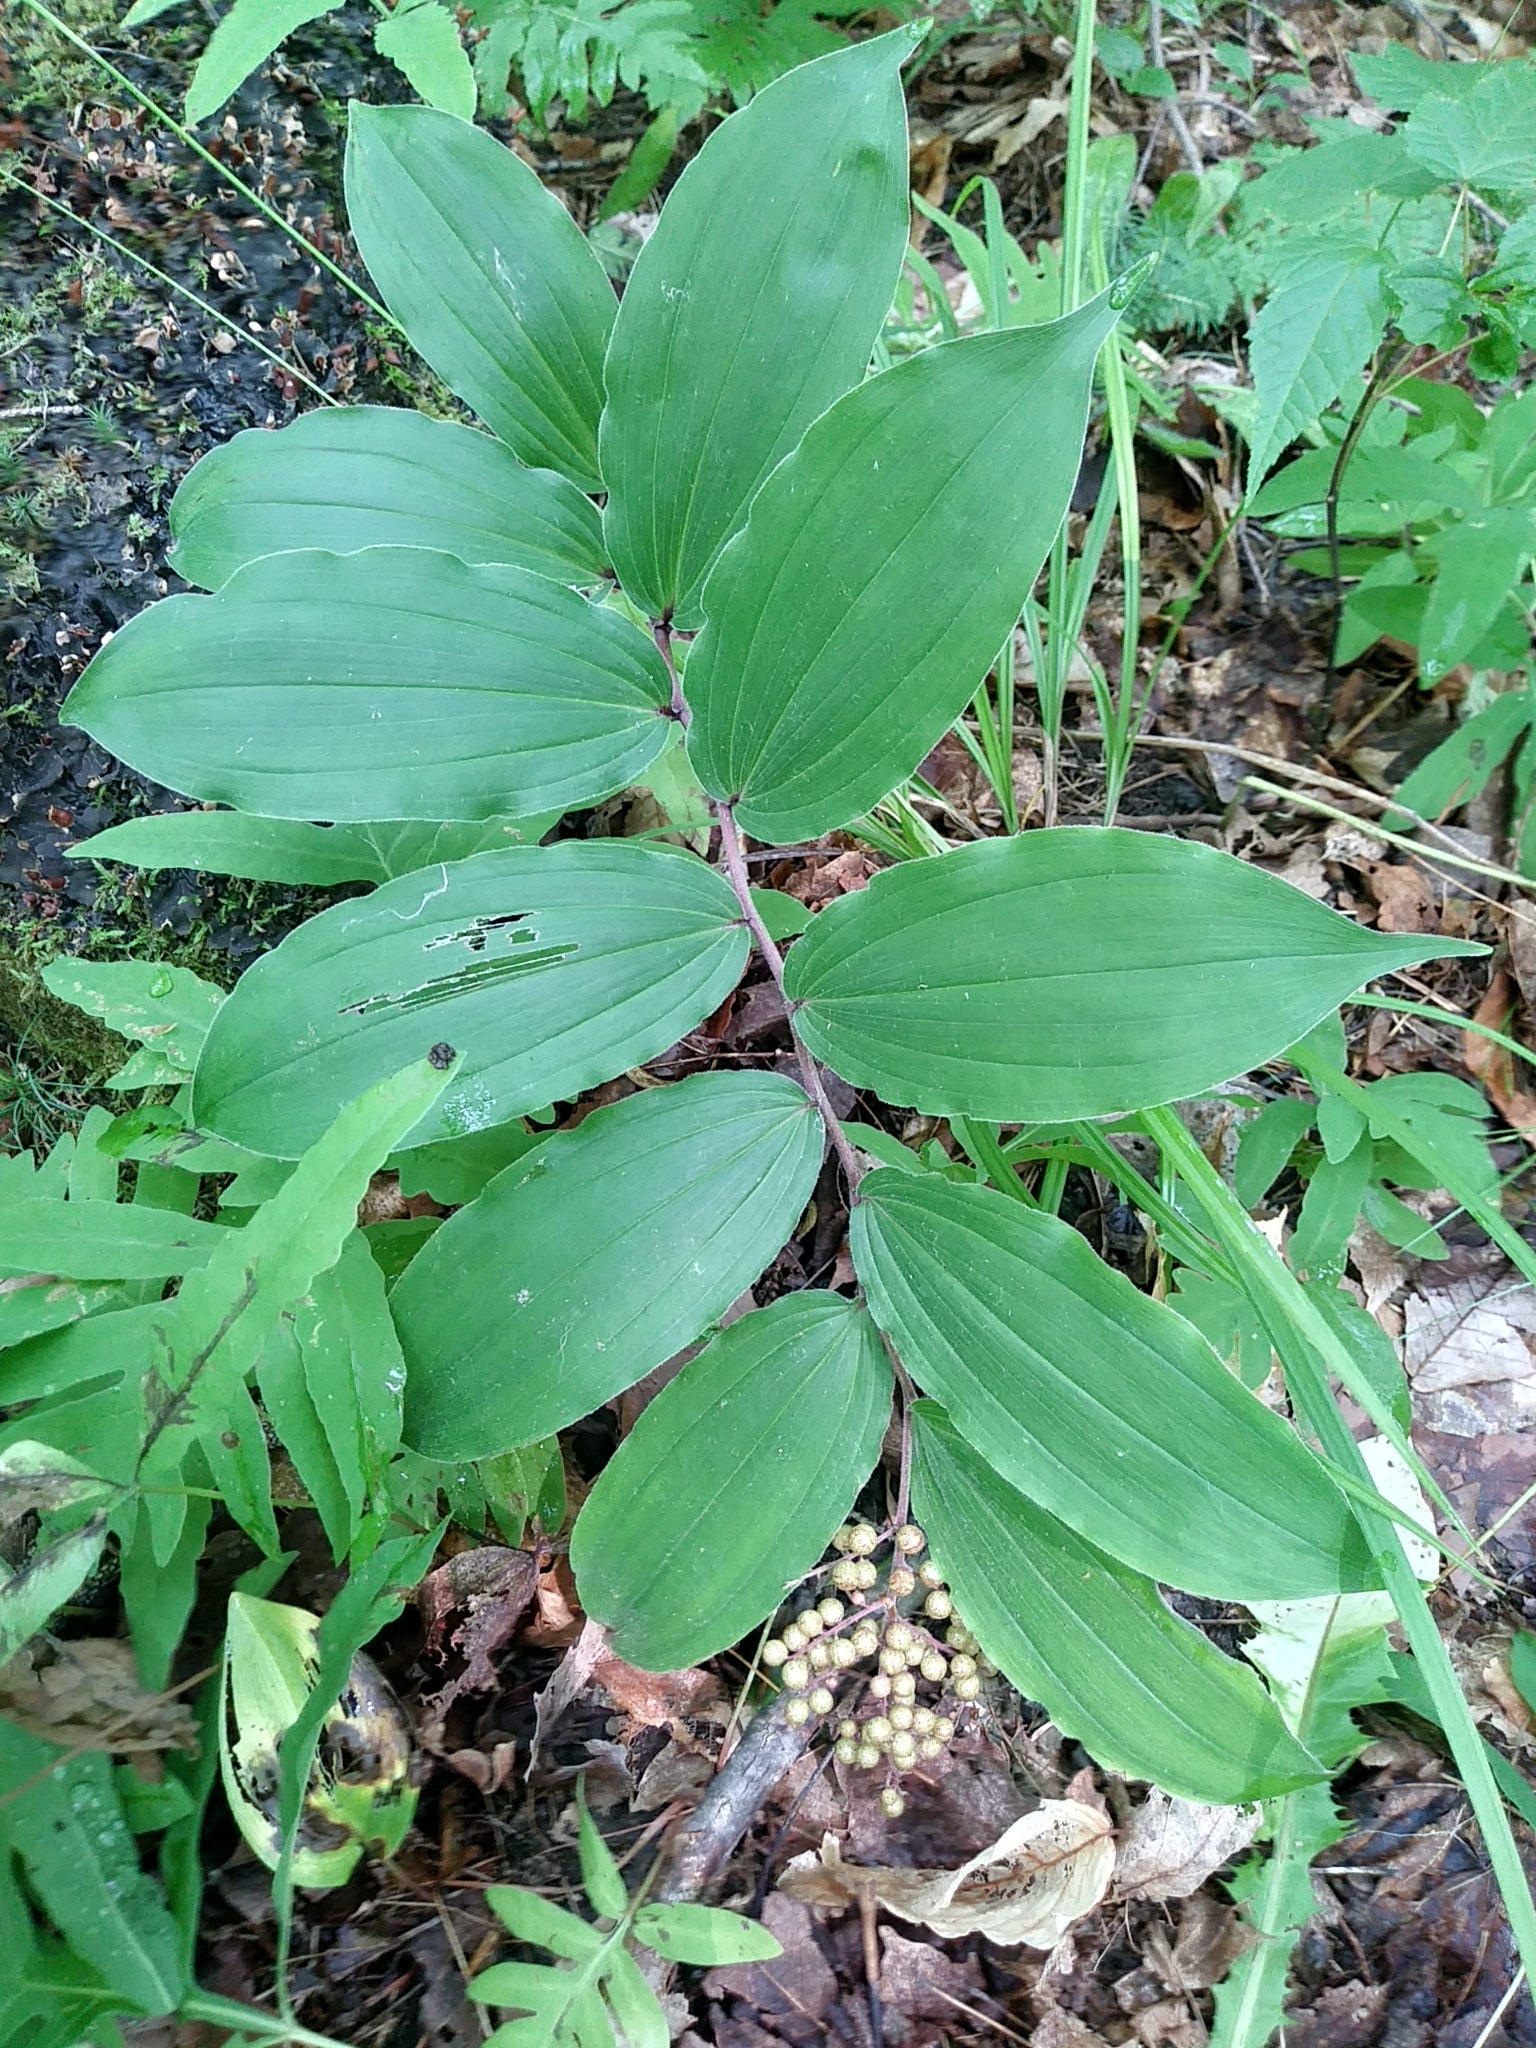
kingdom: Plantae
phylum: Tracheophyta
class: Liliopsida
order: Asparagales
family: Asparagaceae
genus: Maianthemum
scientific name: Maianthemum racemosum
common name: False spikenard
